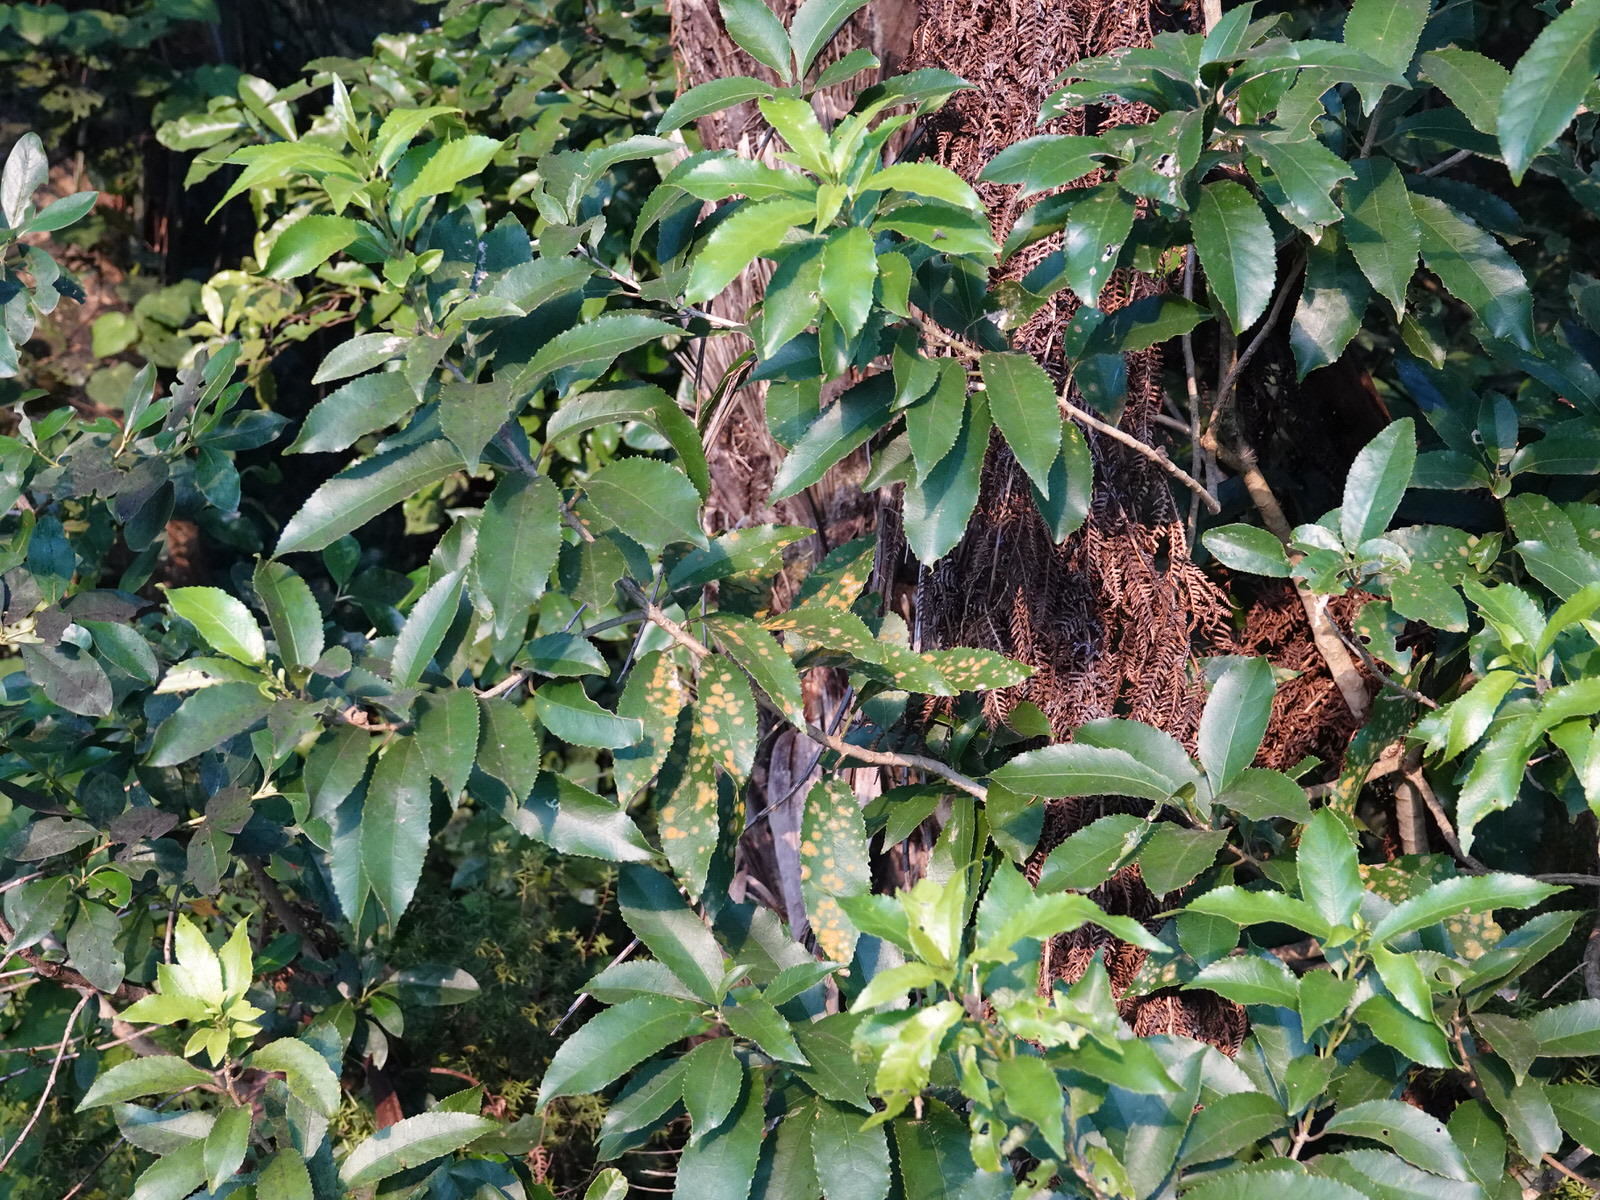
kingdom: Plantae
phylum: Tracheophyta
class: Magnoliopsida
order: Malpighiales
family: Violaceae
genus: Melicytus
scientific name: Melicytus ramiflorus
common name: Mahoe
